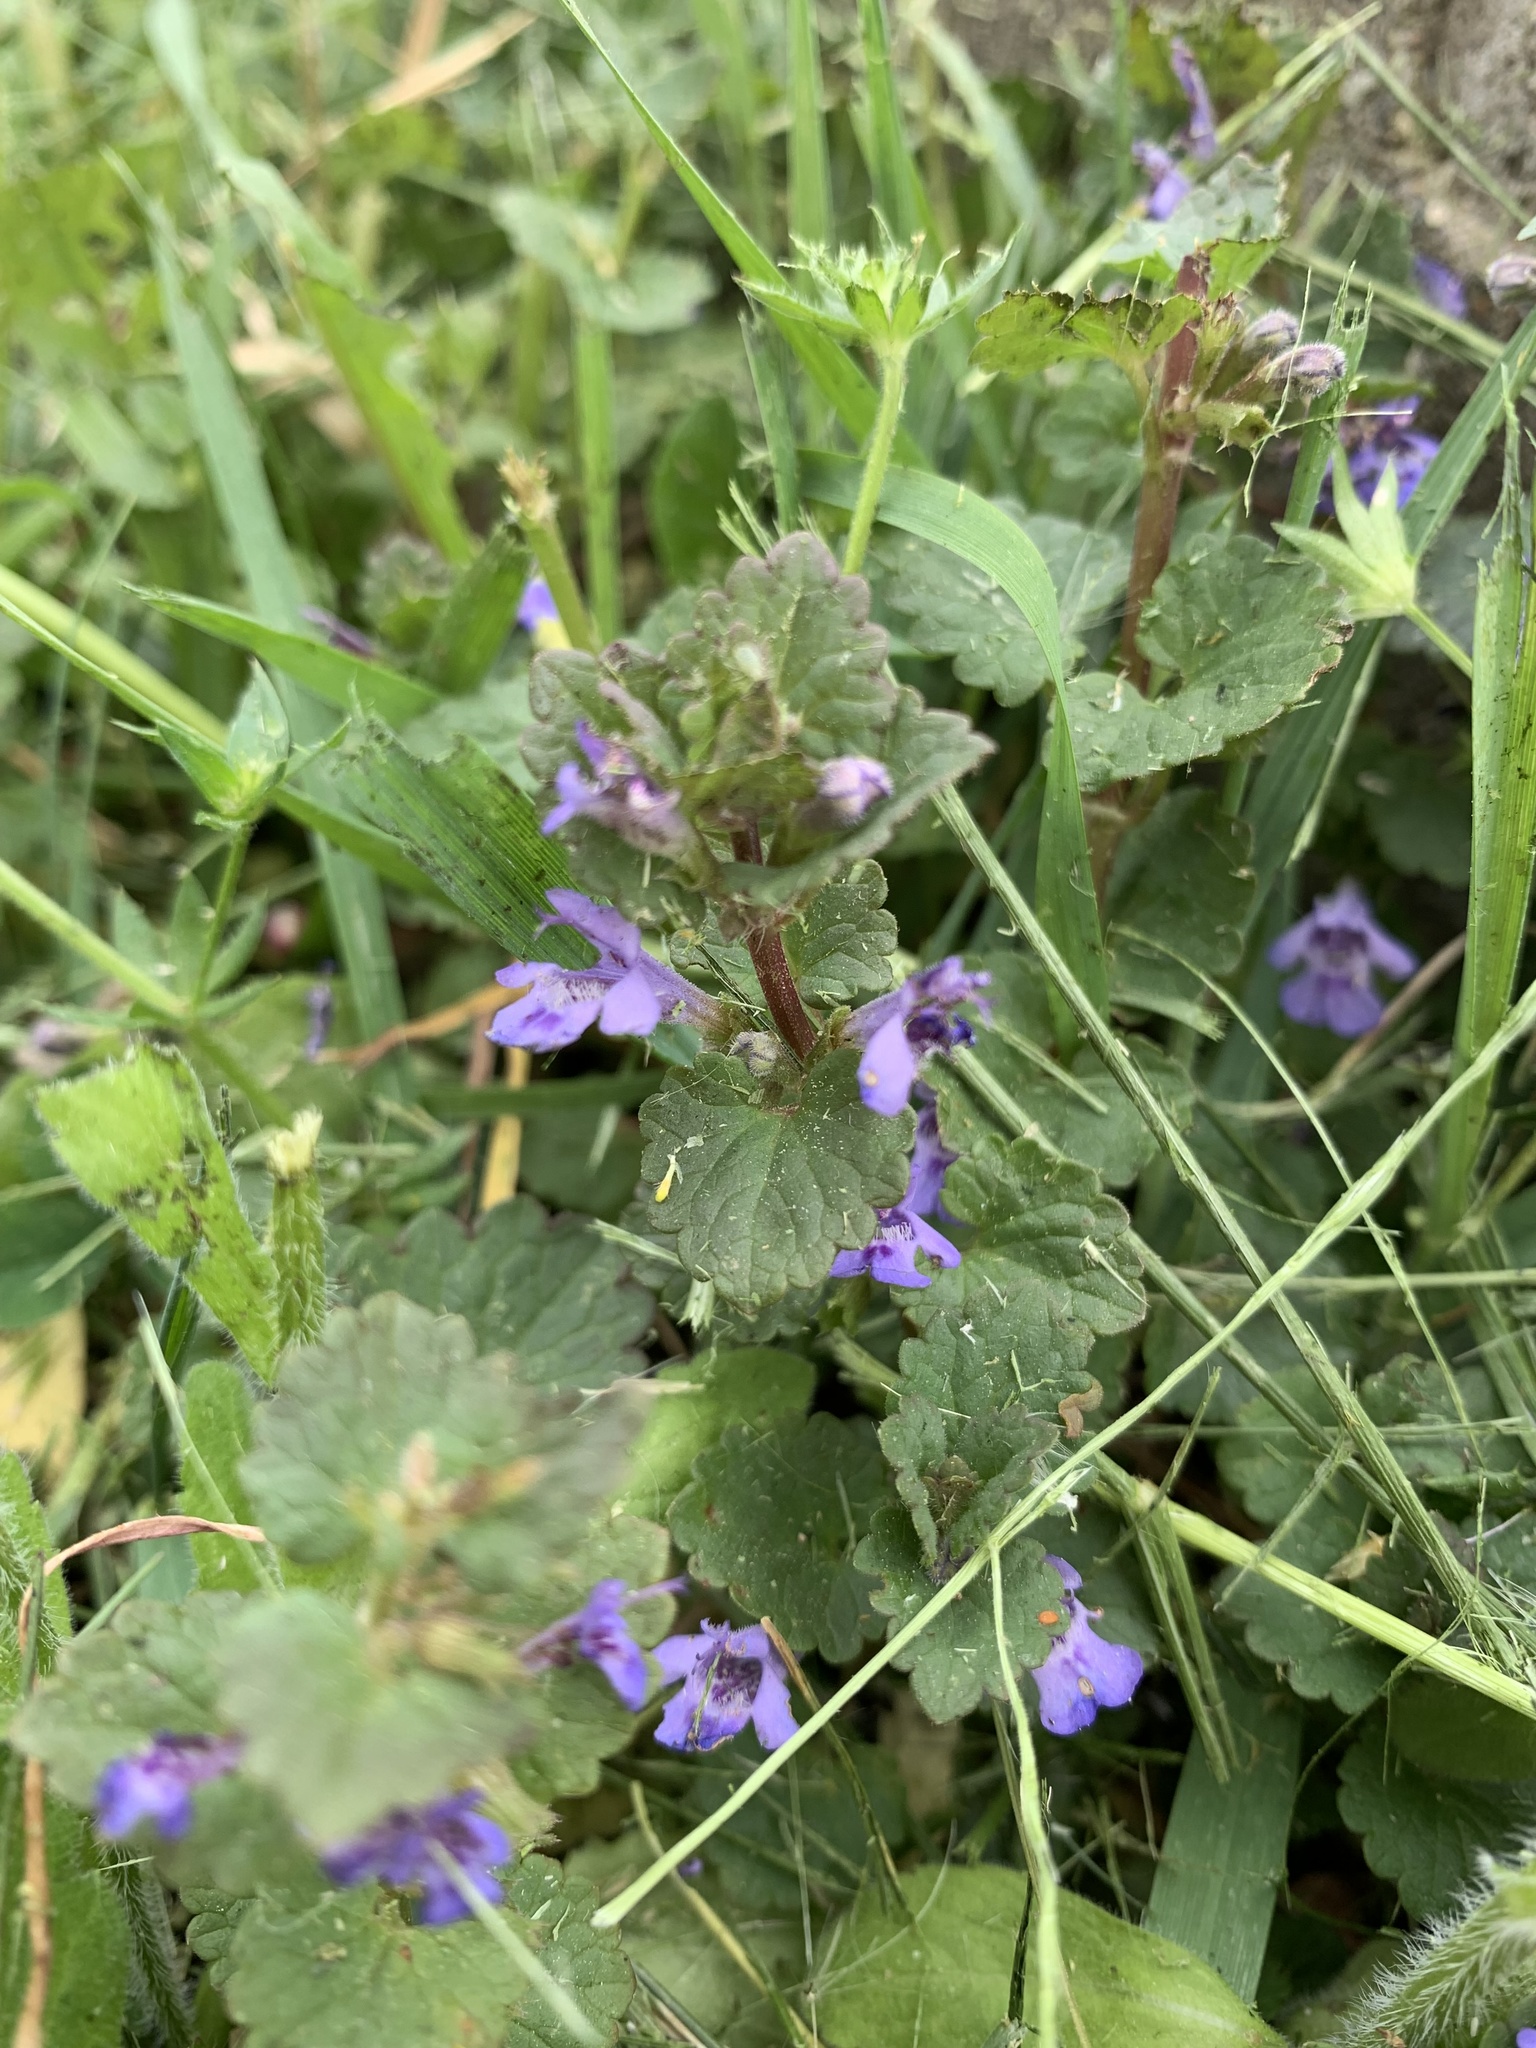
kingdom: Plantae
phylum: Tracheophyta
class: Magnoliopsida
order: Lamiales
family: Lamiaceae
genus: Glechoma
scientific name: Glechoma hederacea
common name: Ground ivy
